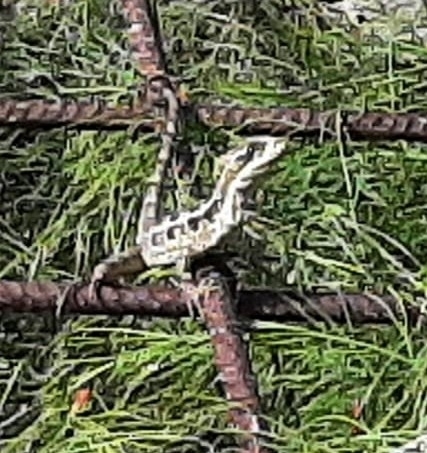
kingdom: Animalia
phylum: Chordata
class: Squamata
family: Corytophanidae
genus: Basiliscus
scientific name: Basiliscus vittatus
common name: Brown basilisk
